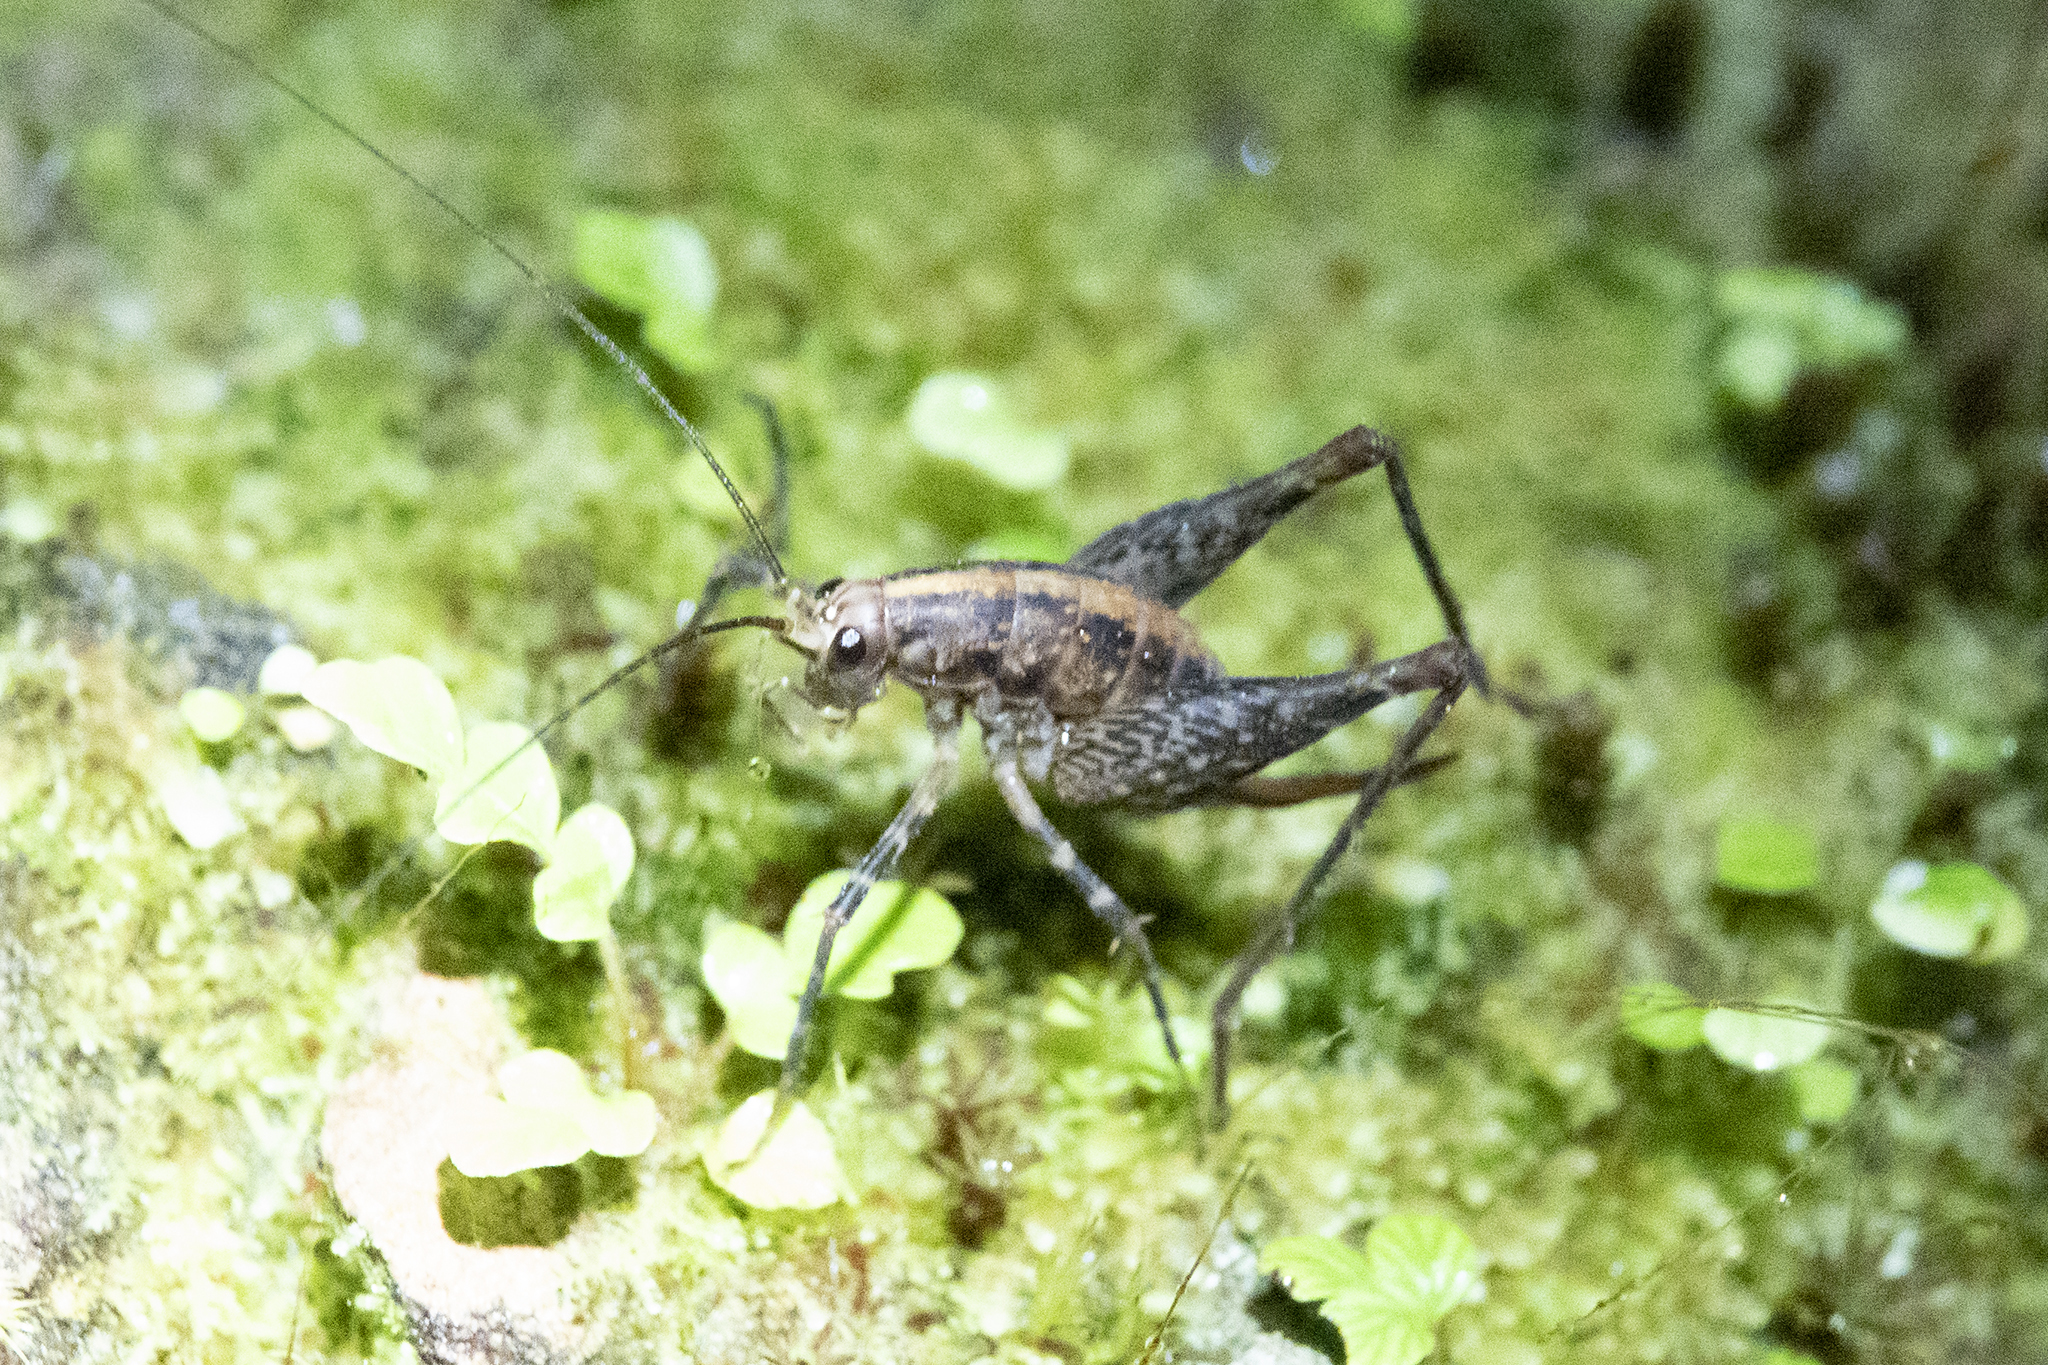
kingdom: Animalia
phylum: Arthropoda
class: Insecta
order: Orthoptera
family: Rhaphidophoridae
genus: Pleioplectron
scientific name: Pleioplectron gubernator
